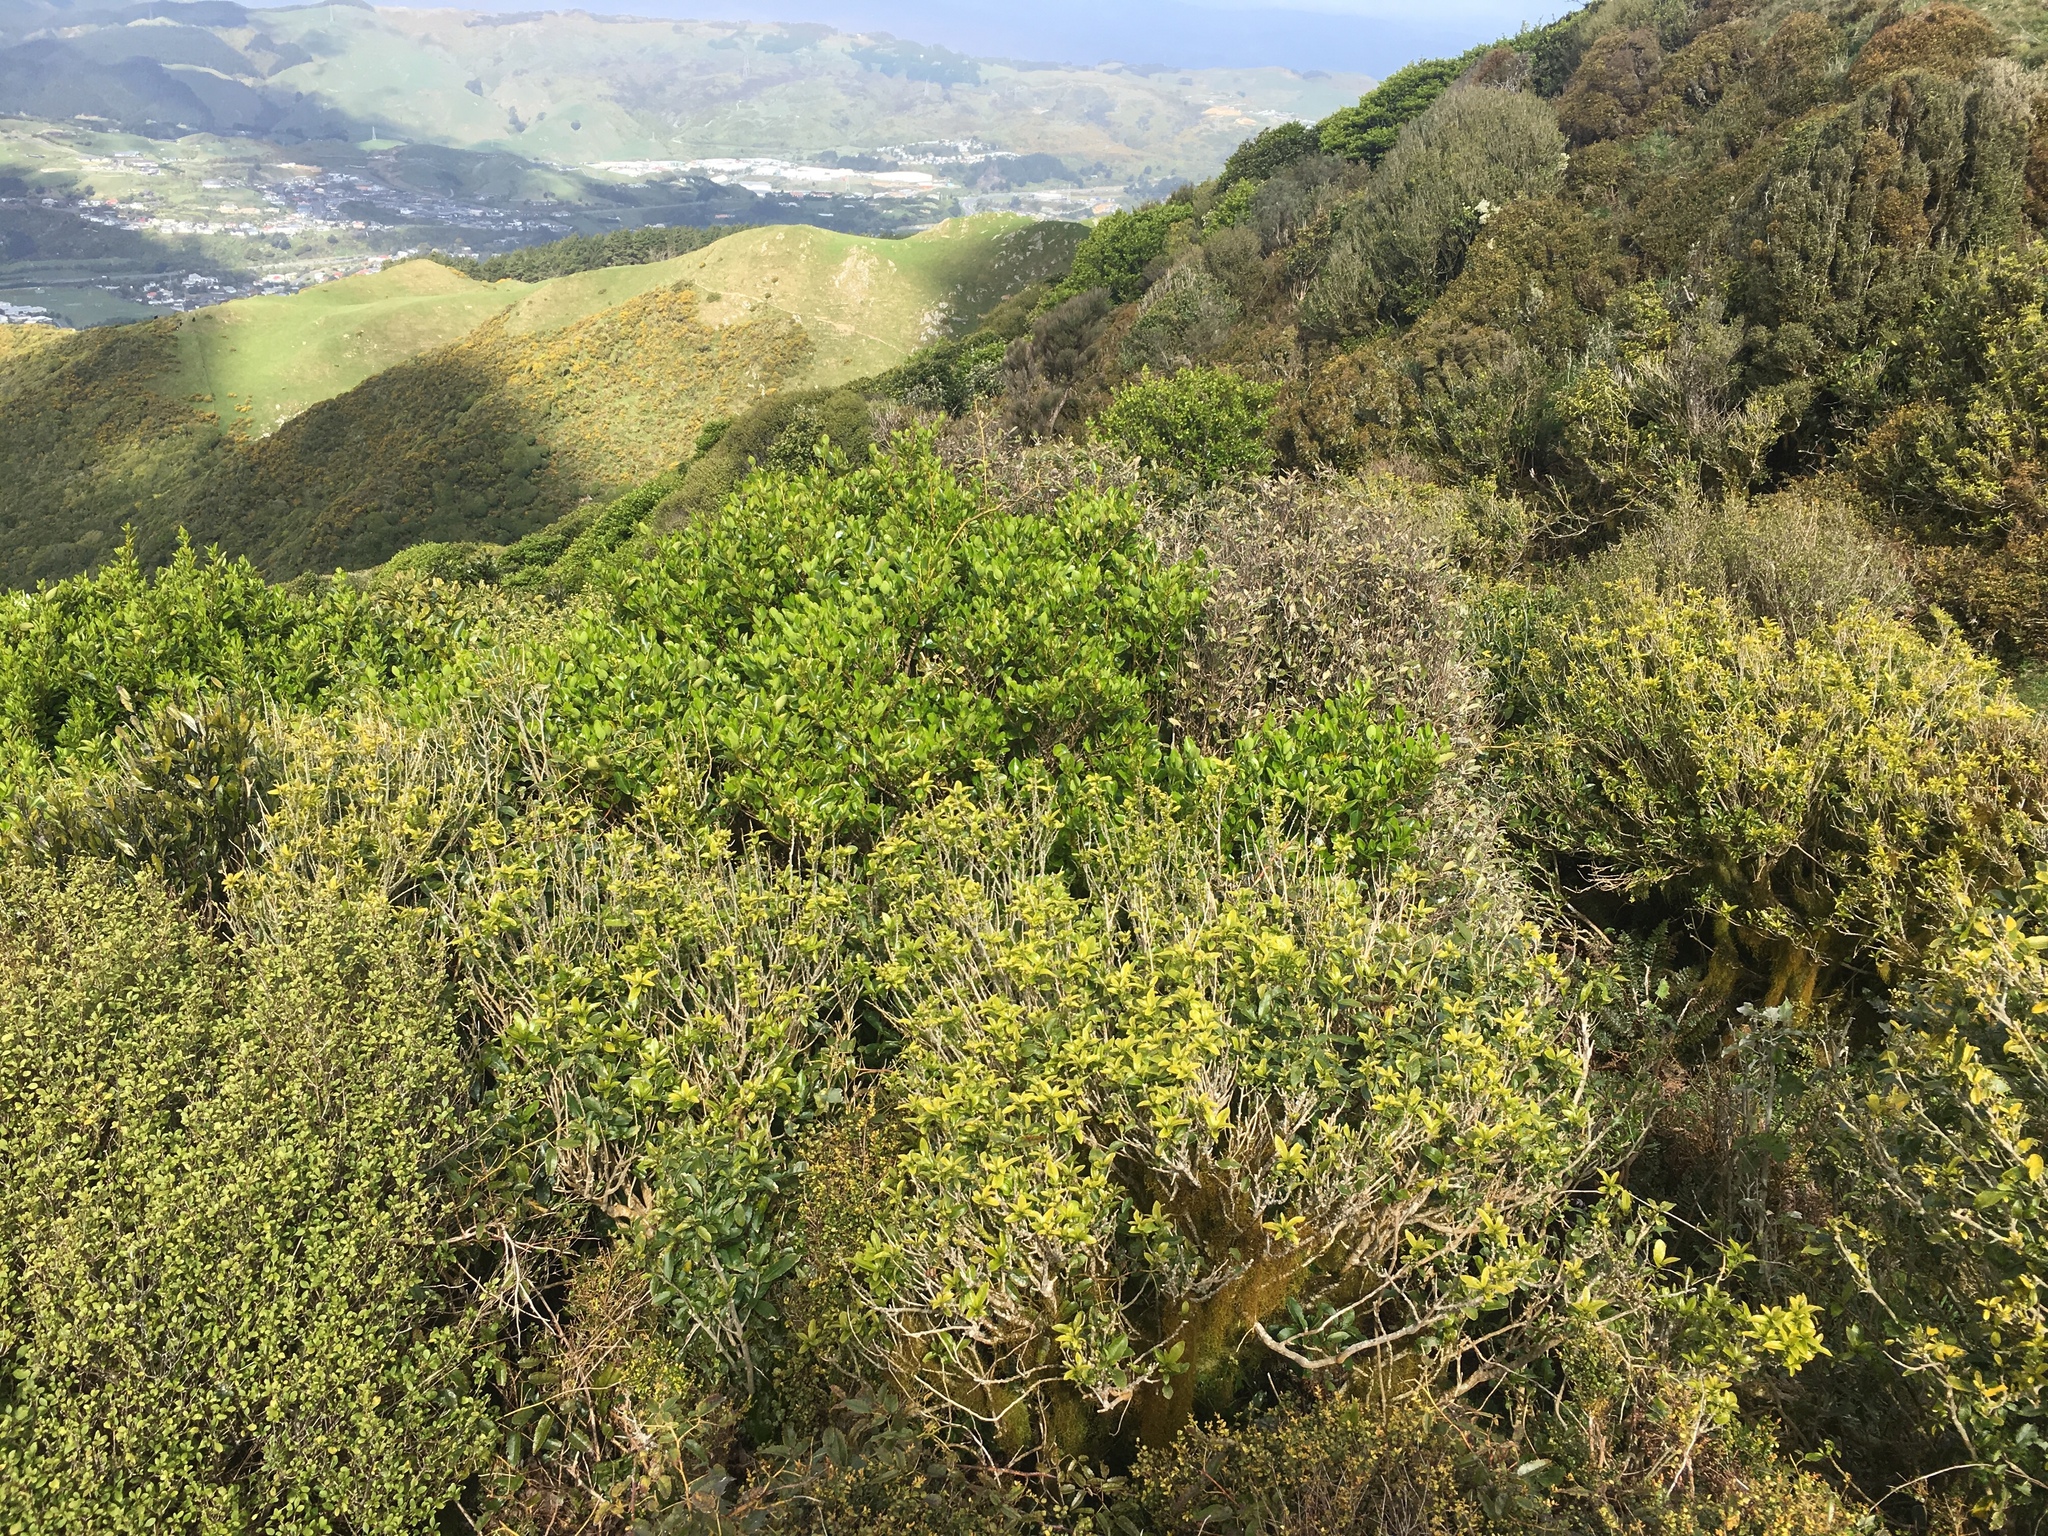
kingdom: Plantae
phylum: Tracheophyta
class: Magnoliopsida
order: Apiales
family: Griseliniaceae
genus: Griselinia
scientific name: Griselinia littoralis
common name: New zealand broadleaf
